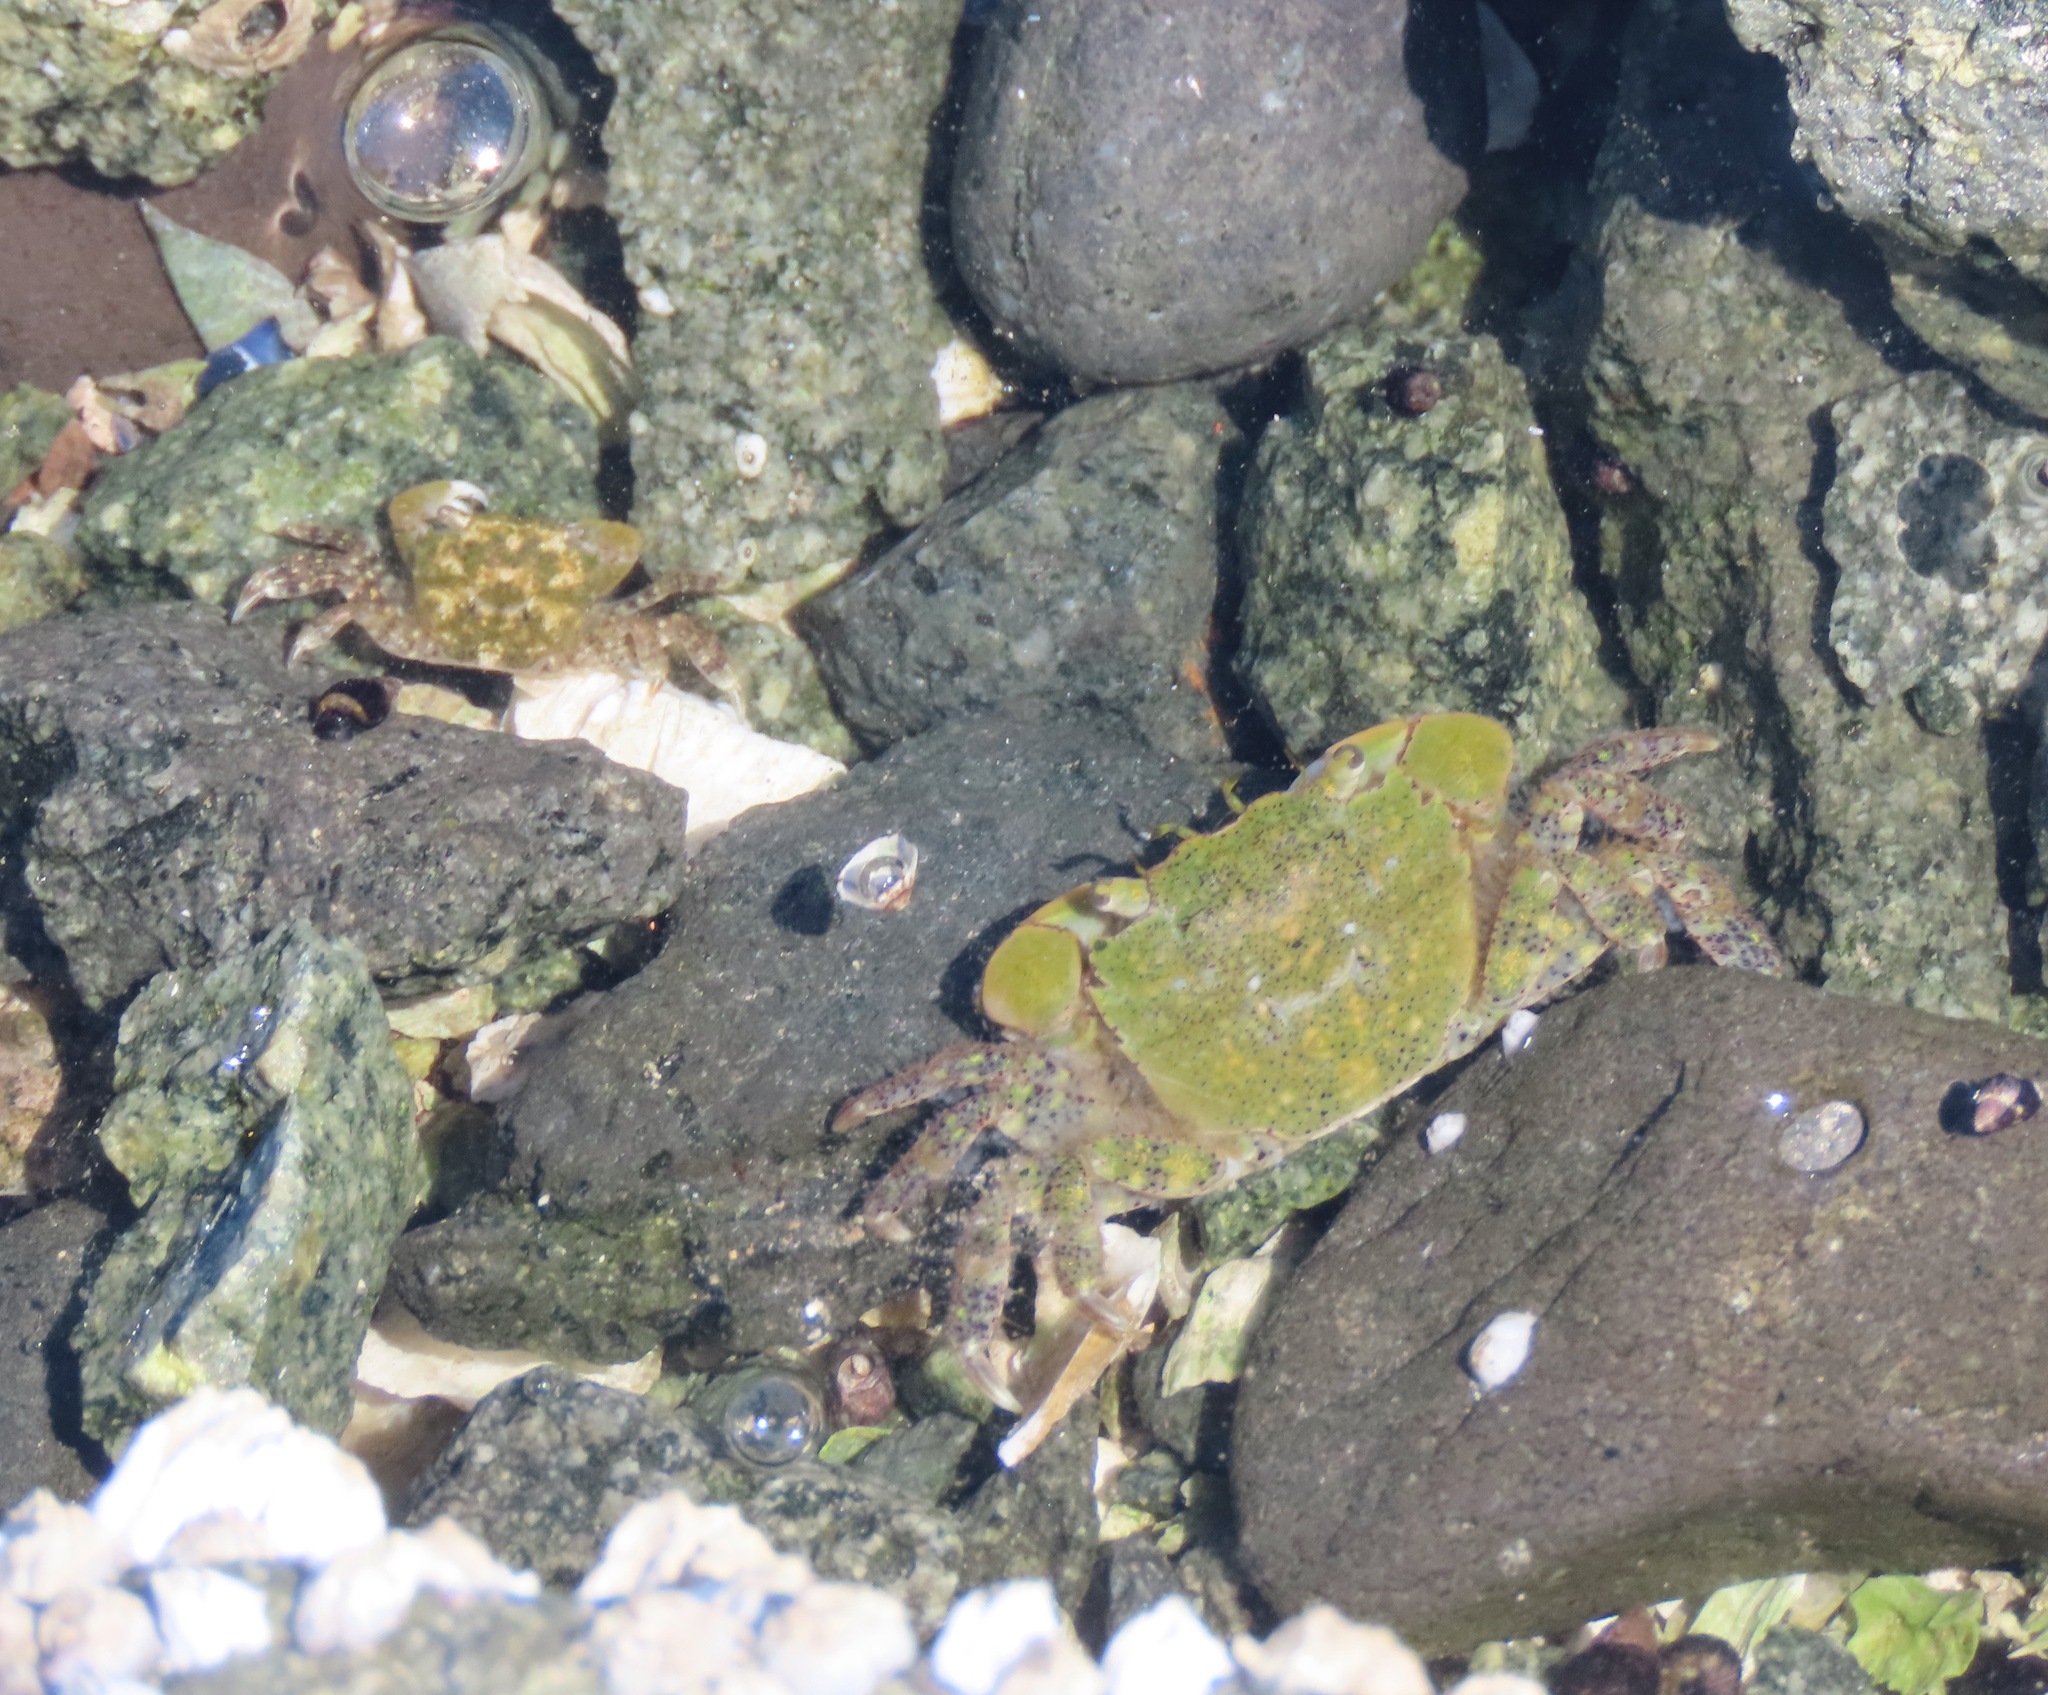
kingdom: Animalia
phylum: Arthropoda
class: Malacostraca
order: Decapoda
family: Varunidae
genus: Hemigrapsus
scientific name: Hemigrapsus oregonensis
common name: Yellow shore crab
